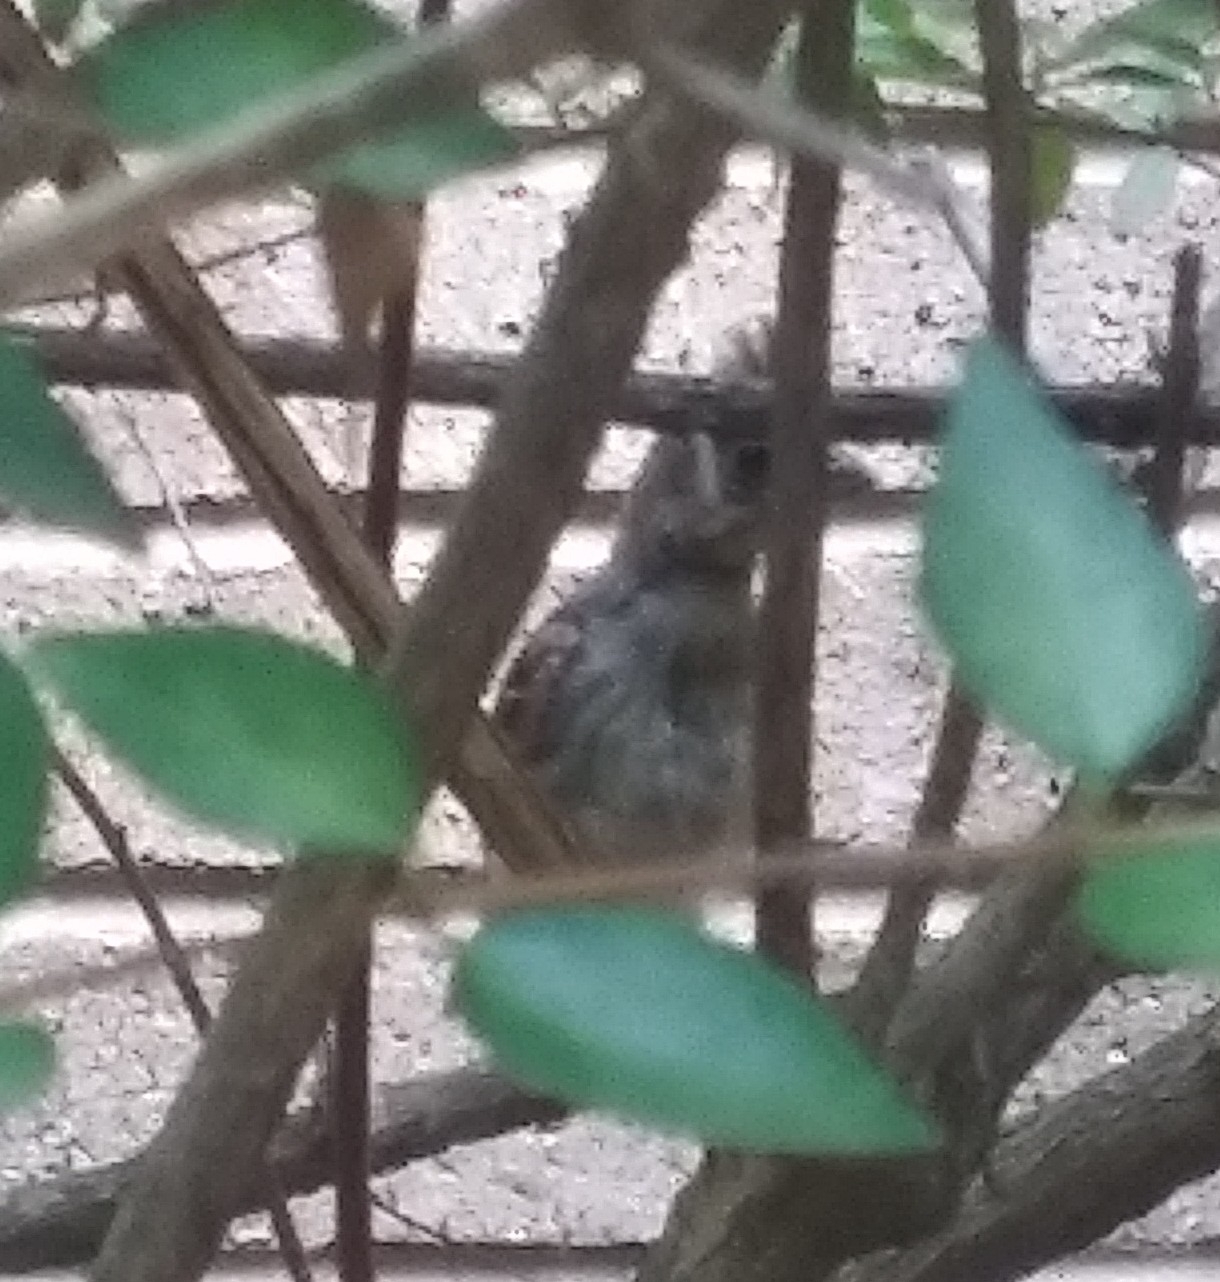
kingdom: Animalia
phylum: Chordata
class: Aves
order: Passeriformes
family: Cardinalidae
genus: Cardinalis
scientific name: Cardinalis cardinalis
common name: Northern cardinal
